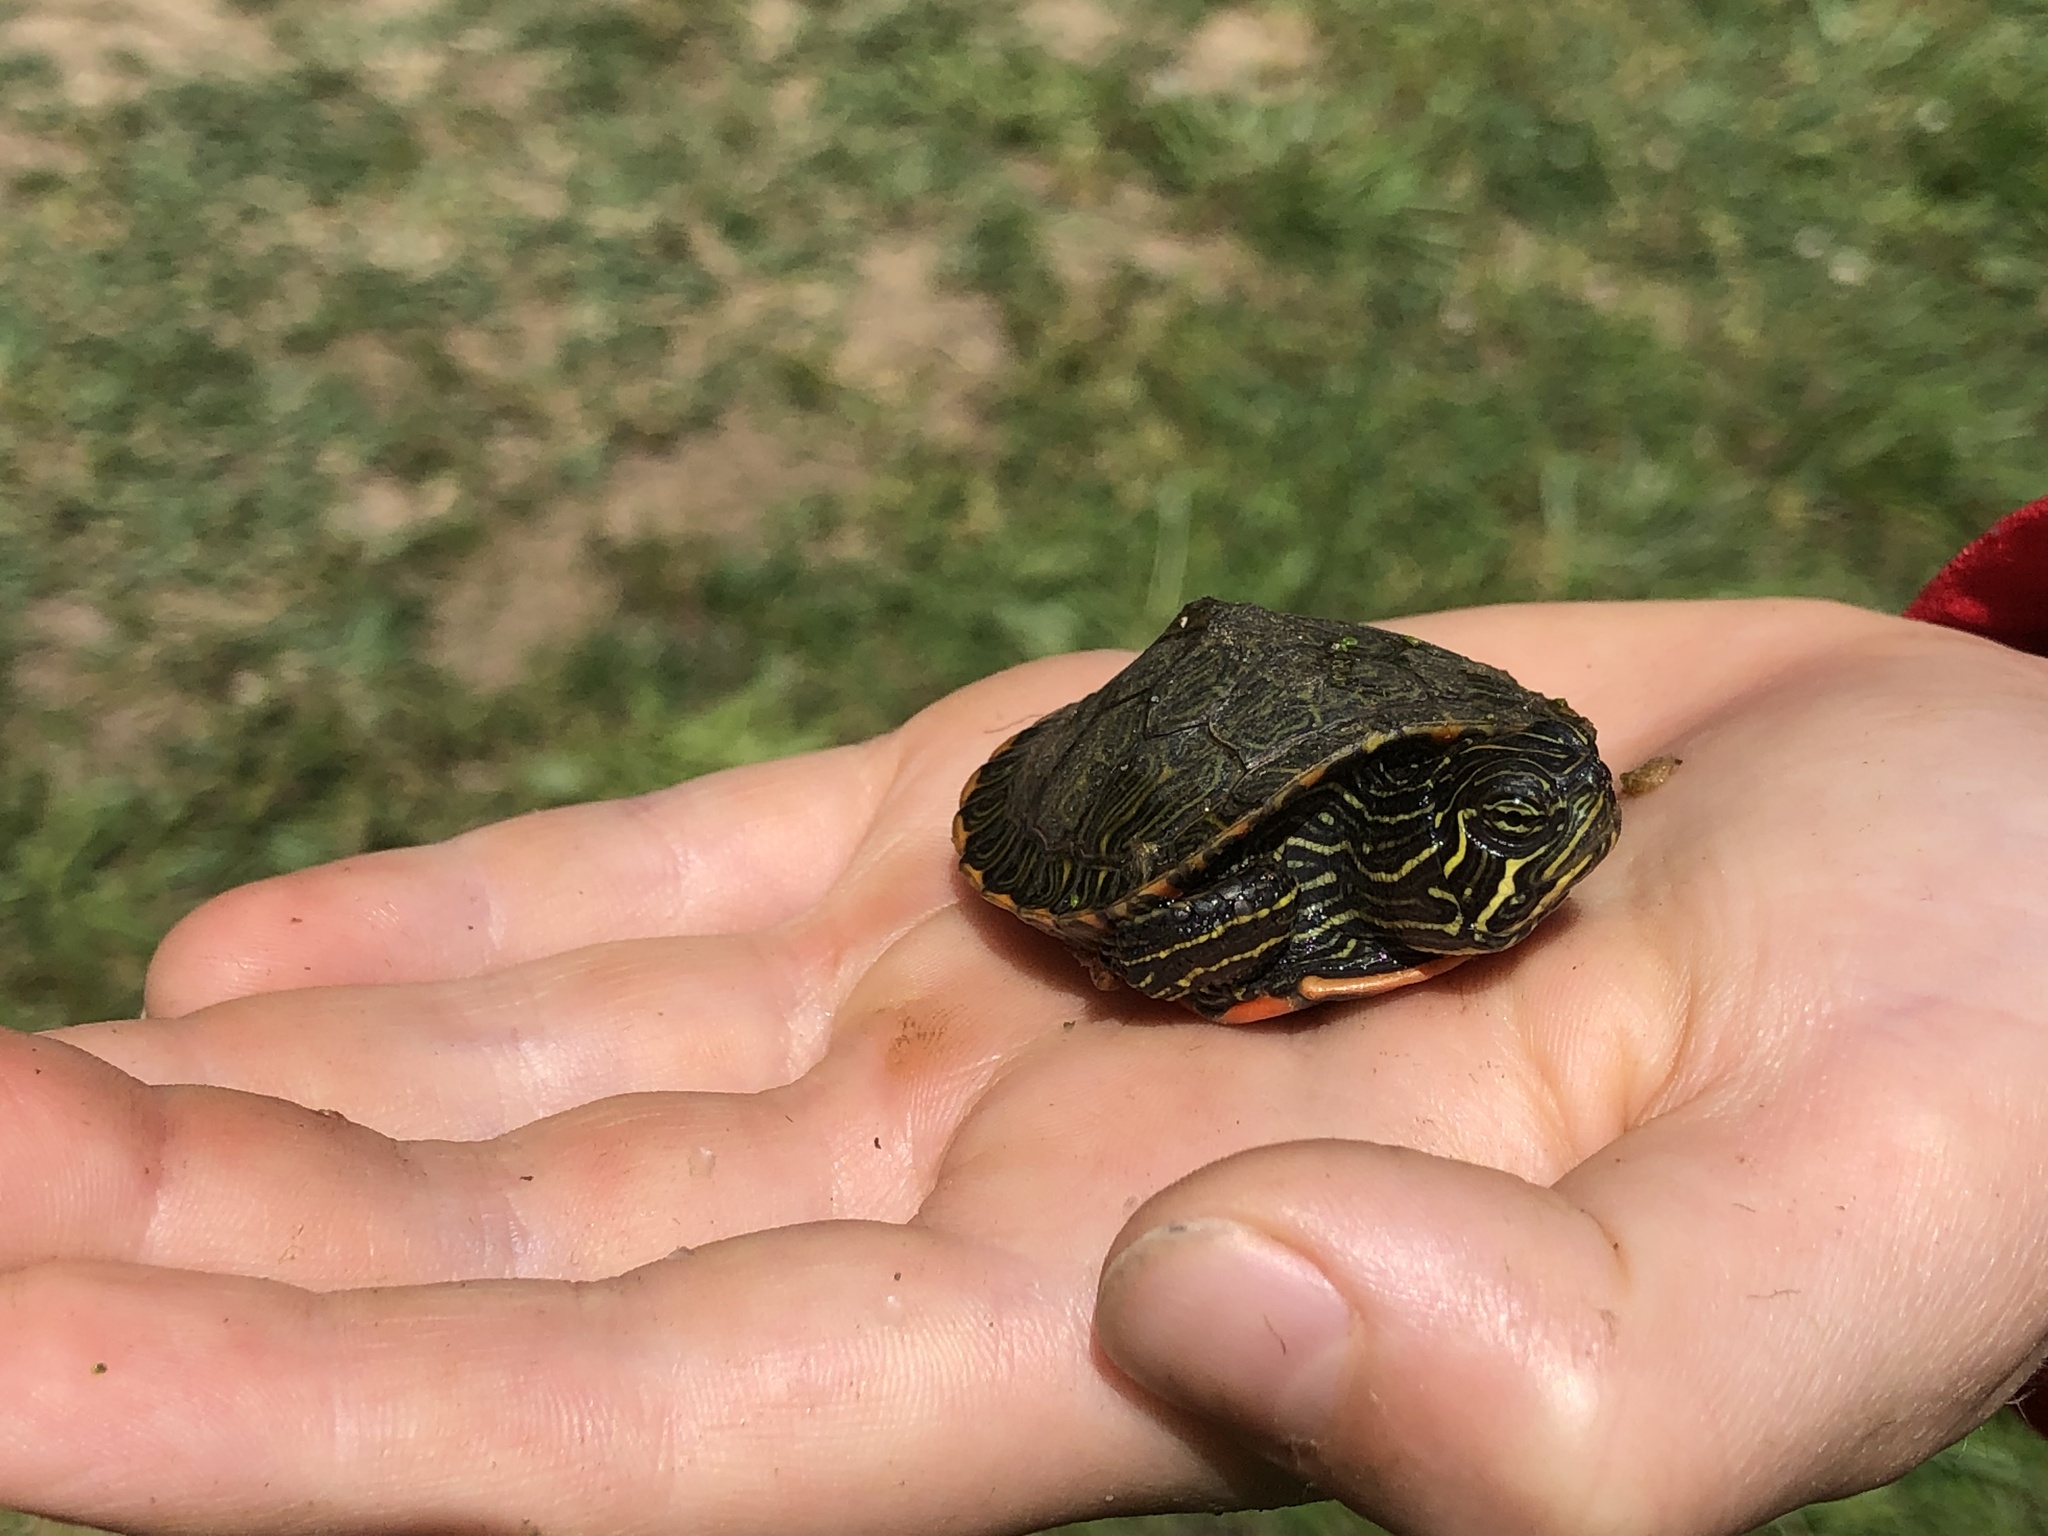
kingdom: Animalia
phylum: Chordata
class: Testudines
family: Emydidae
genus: Pseudemys
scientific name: Pseudemys rubriventris
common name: American red-bellied turtle
